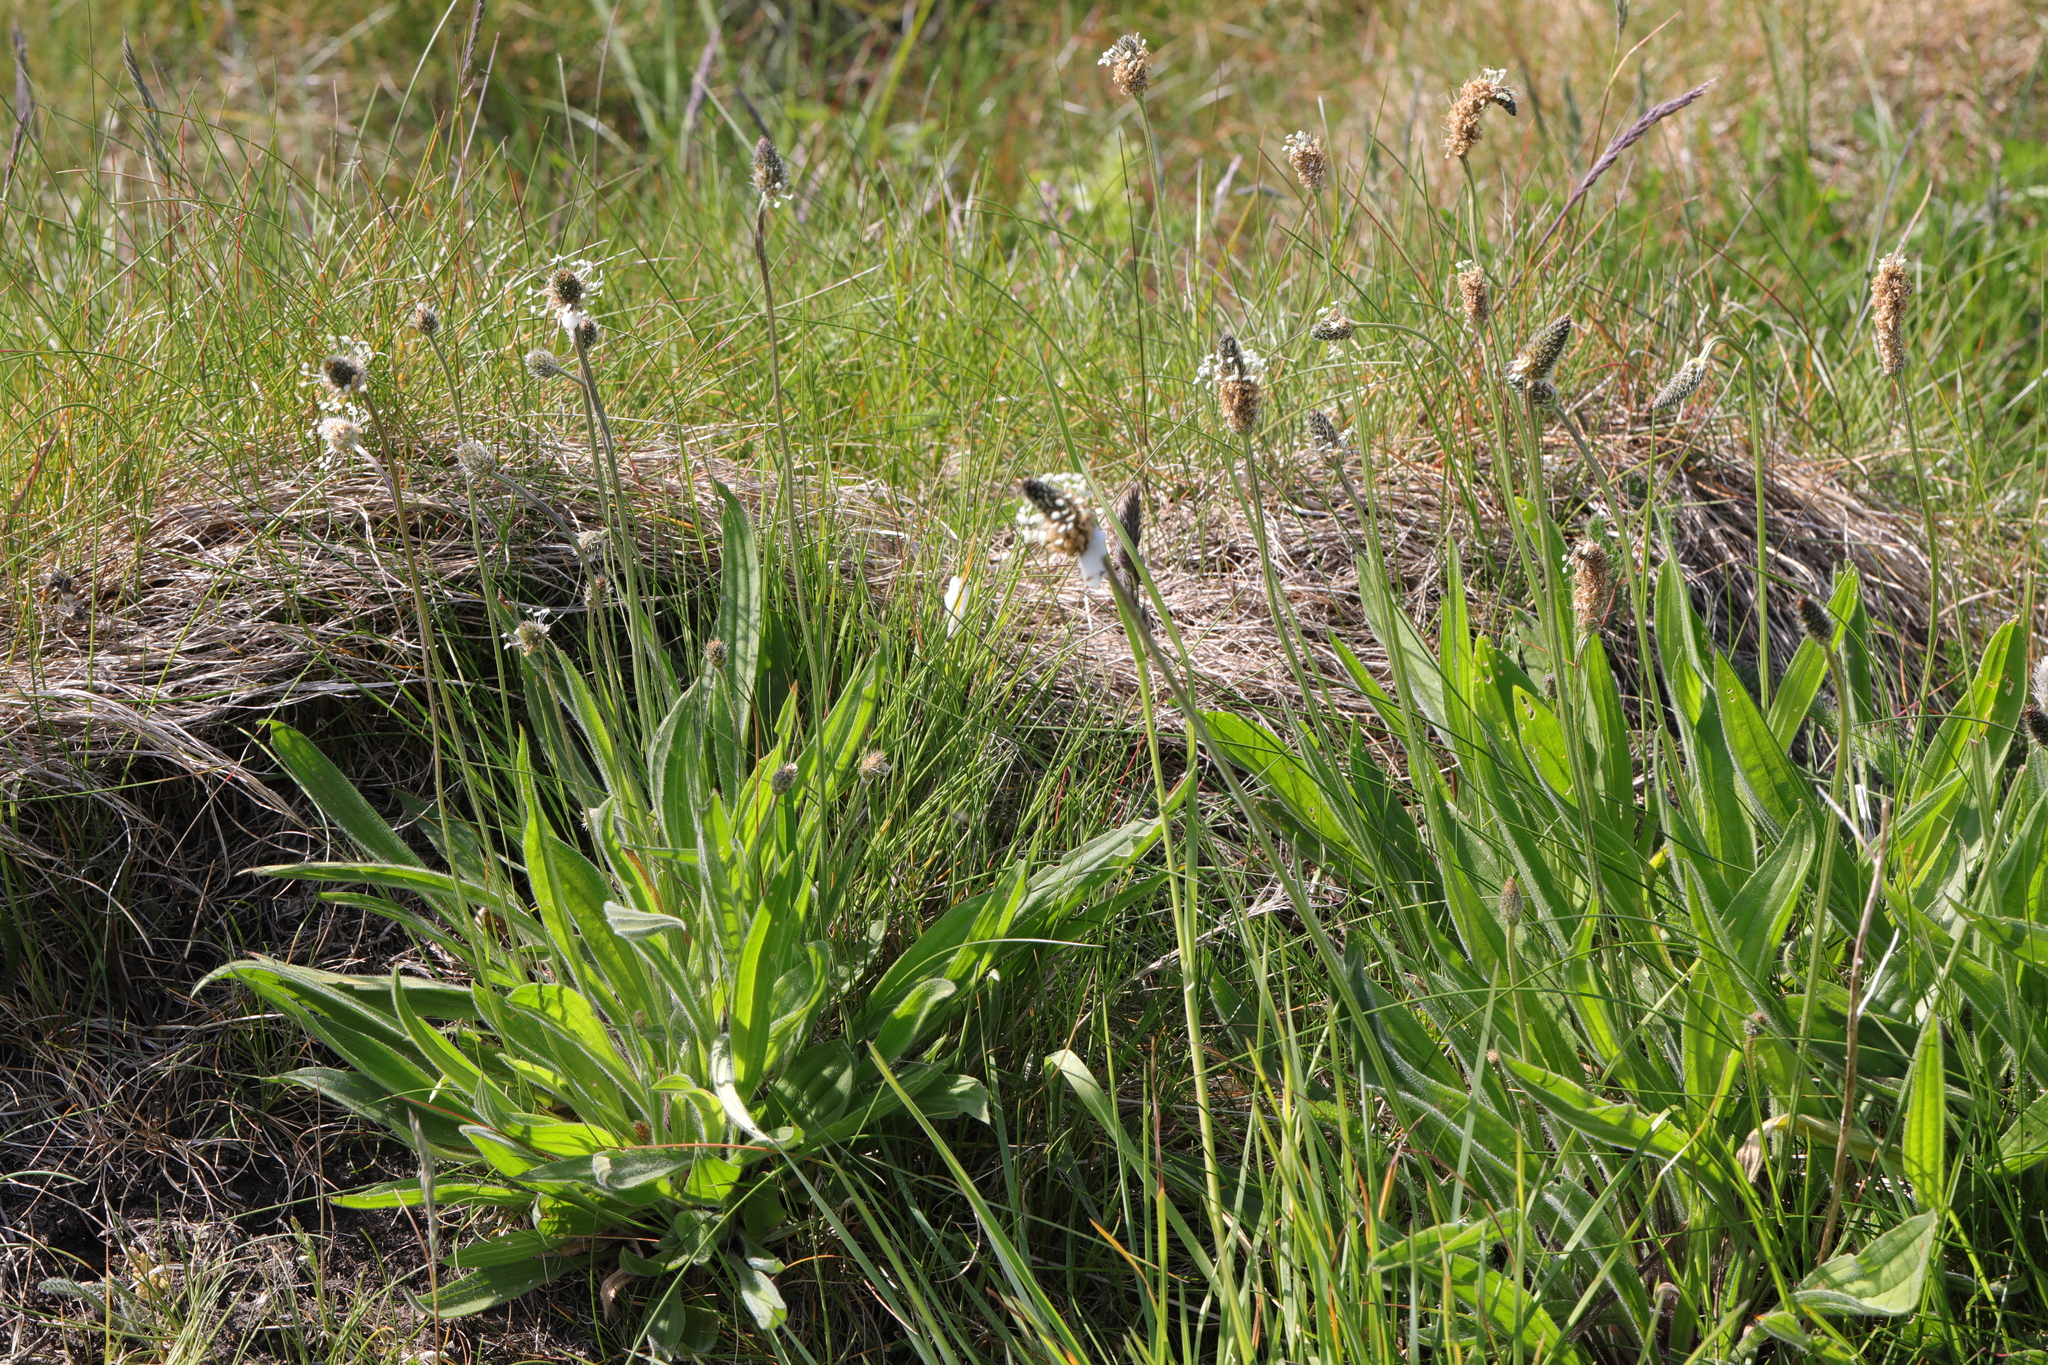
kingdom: Plantae
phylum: Tracheophyta
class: Magnoliopsida
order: Lamiales
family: Plantaginaceae
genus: Plantago
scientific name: Plantago lanceolata
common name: Ribwort plantain
